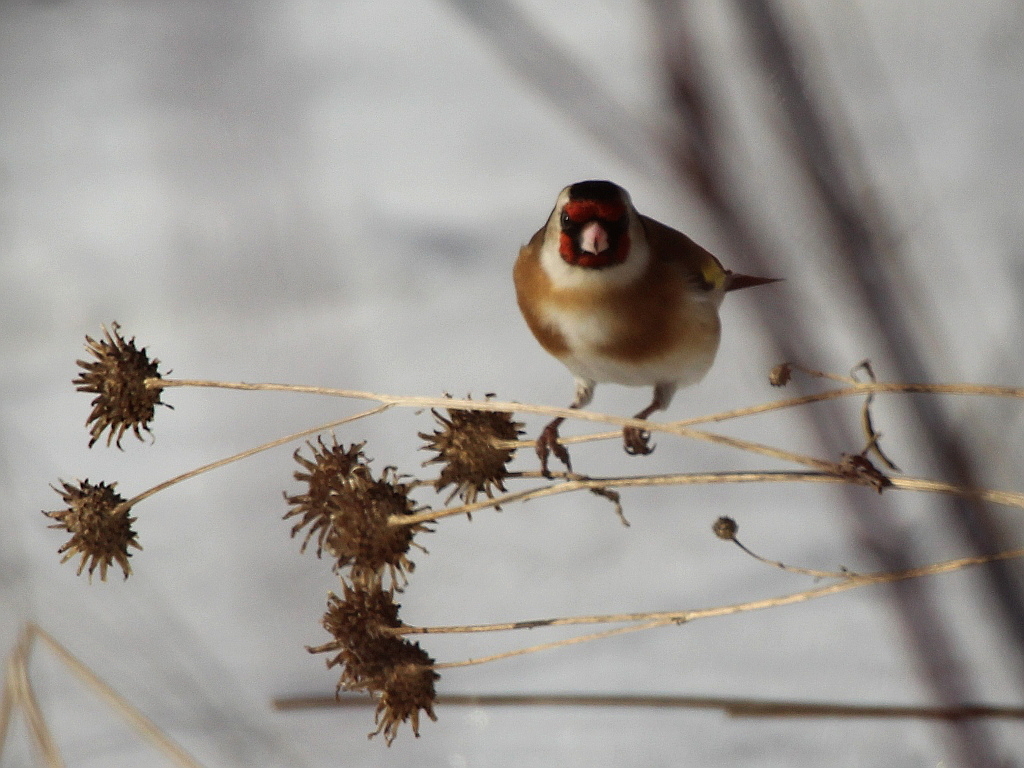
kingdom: Animalia
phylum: Chordata
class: Aves
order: Passeriformes
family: Fringillidae
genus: Carduelis
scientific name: Carduelis carduelis
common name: European goldfinch
